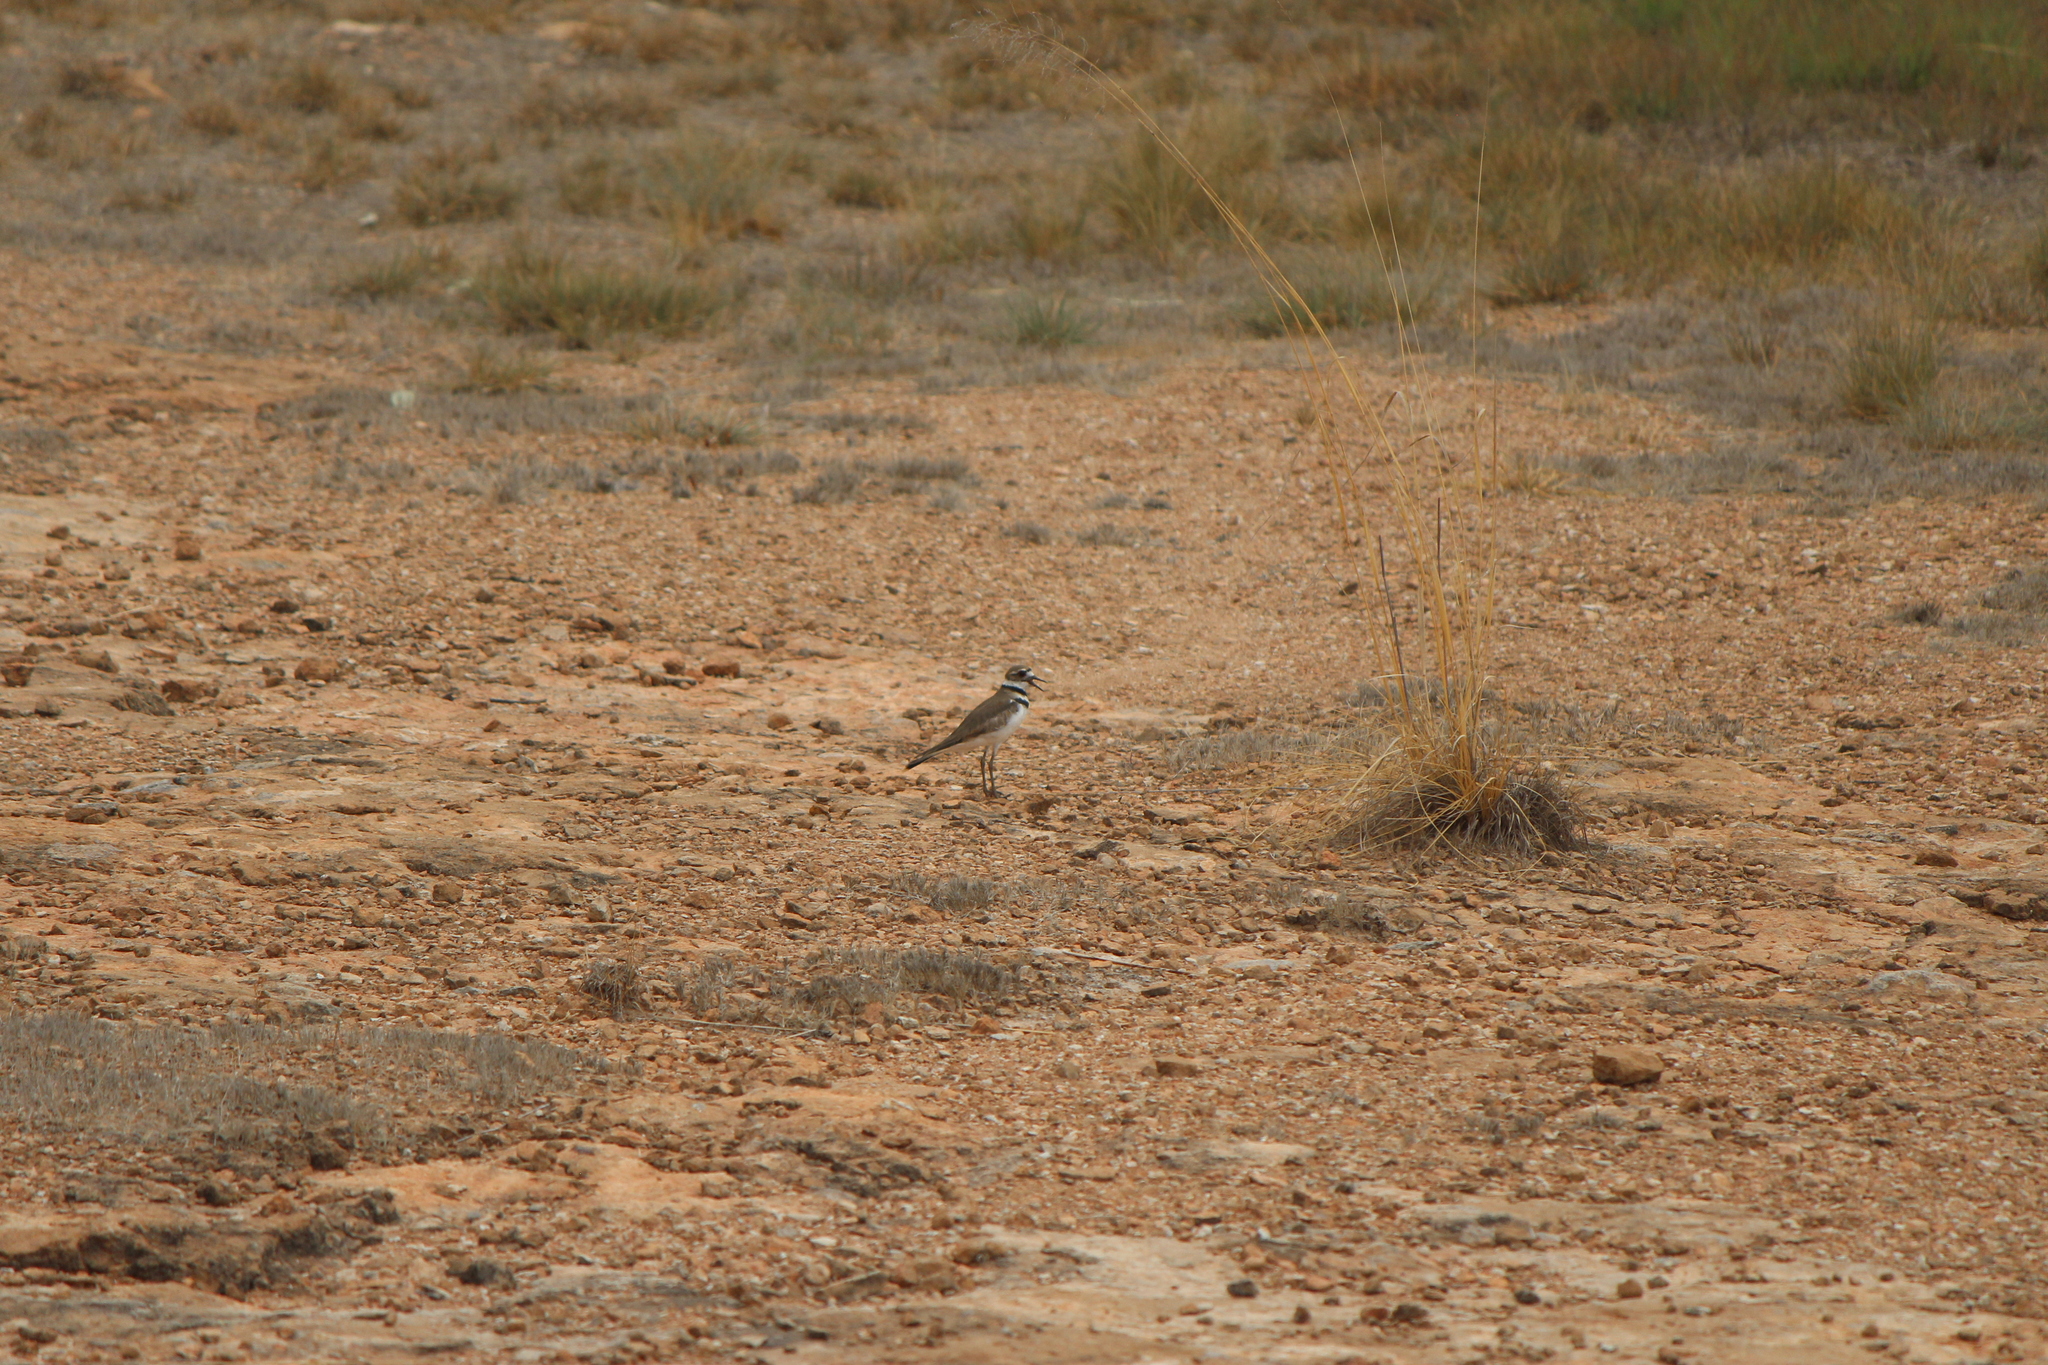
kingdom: Animalia
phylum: Chordata
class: Aves
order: Charadriiformes
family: Charadriidae
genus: Charadrius
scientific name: Charadrius vociferus
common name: Killdeer
